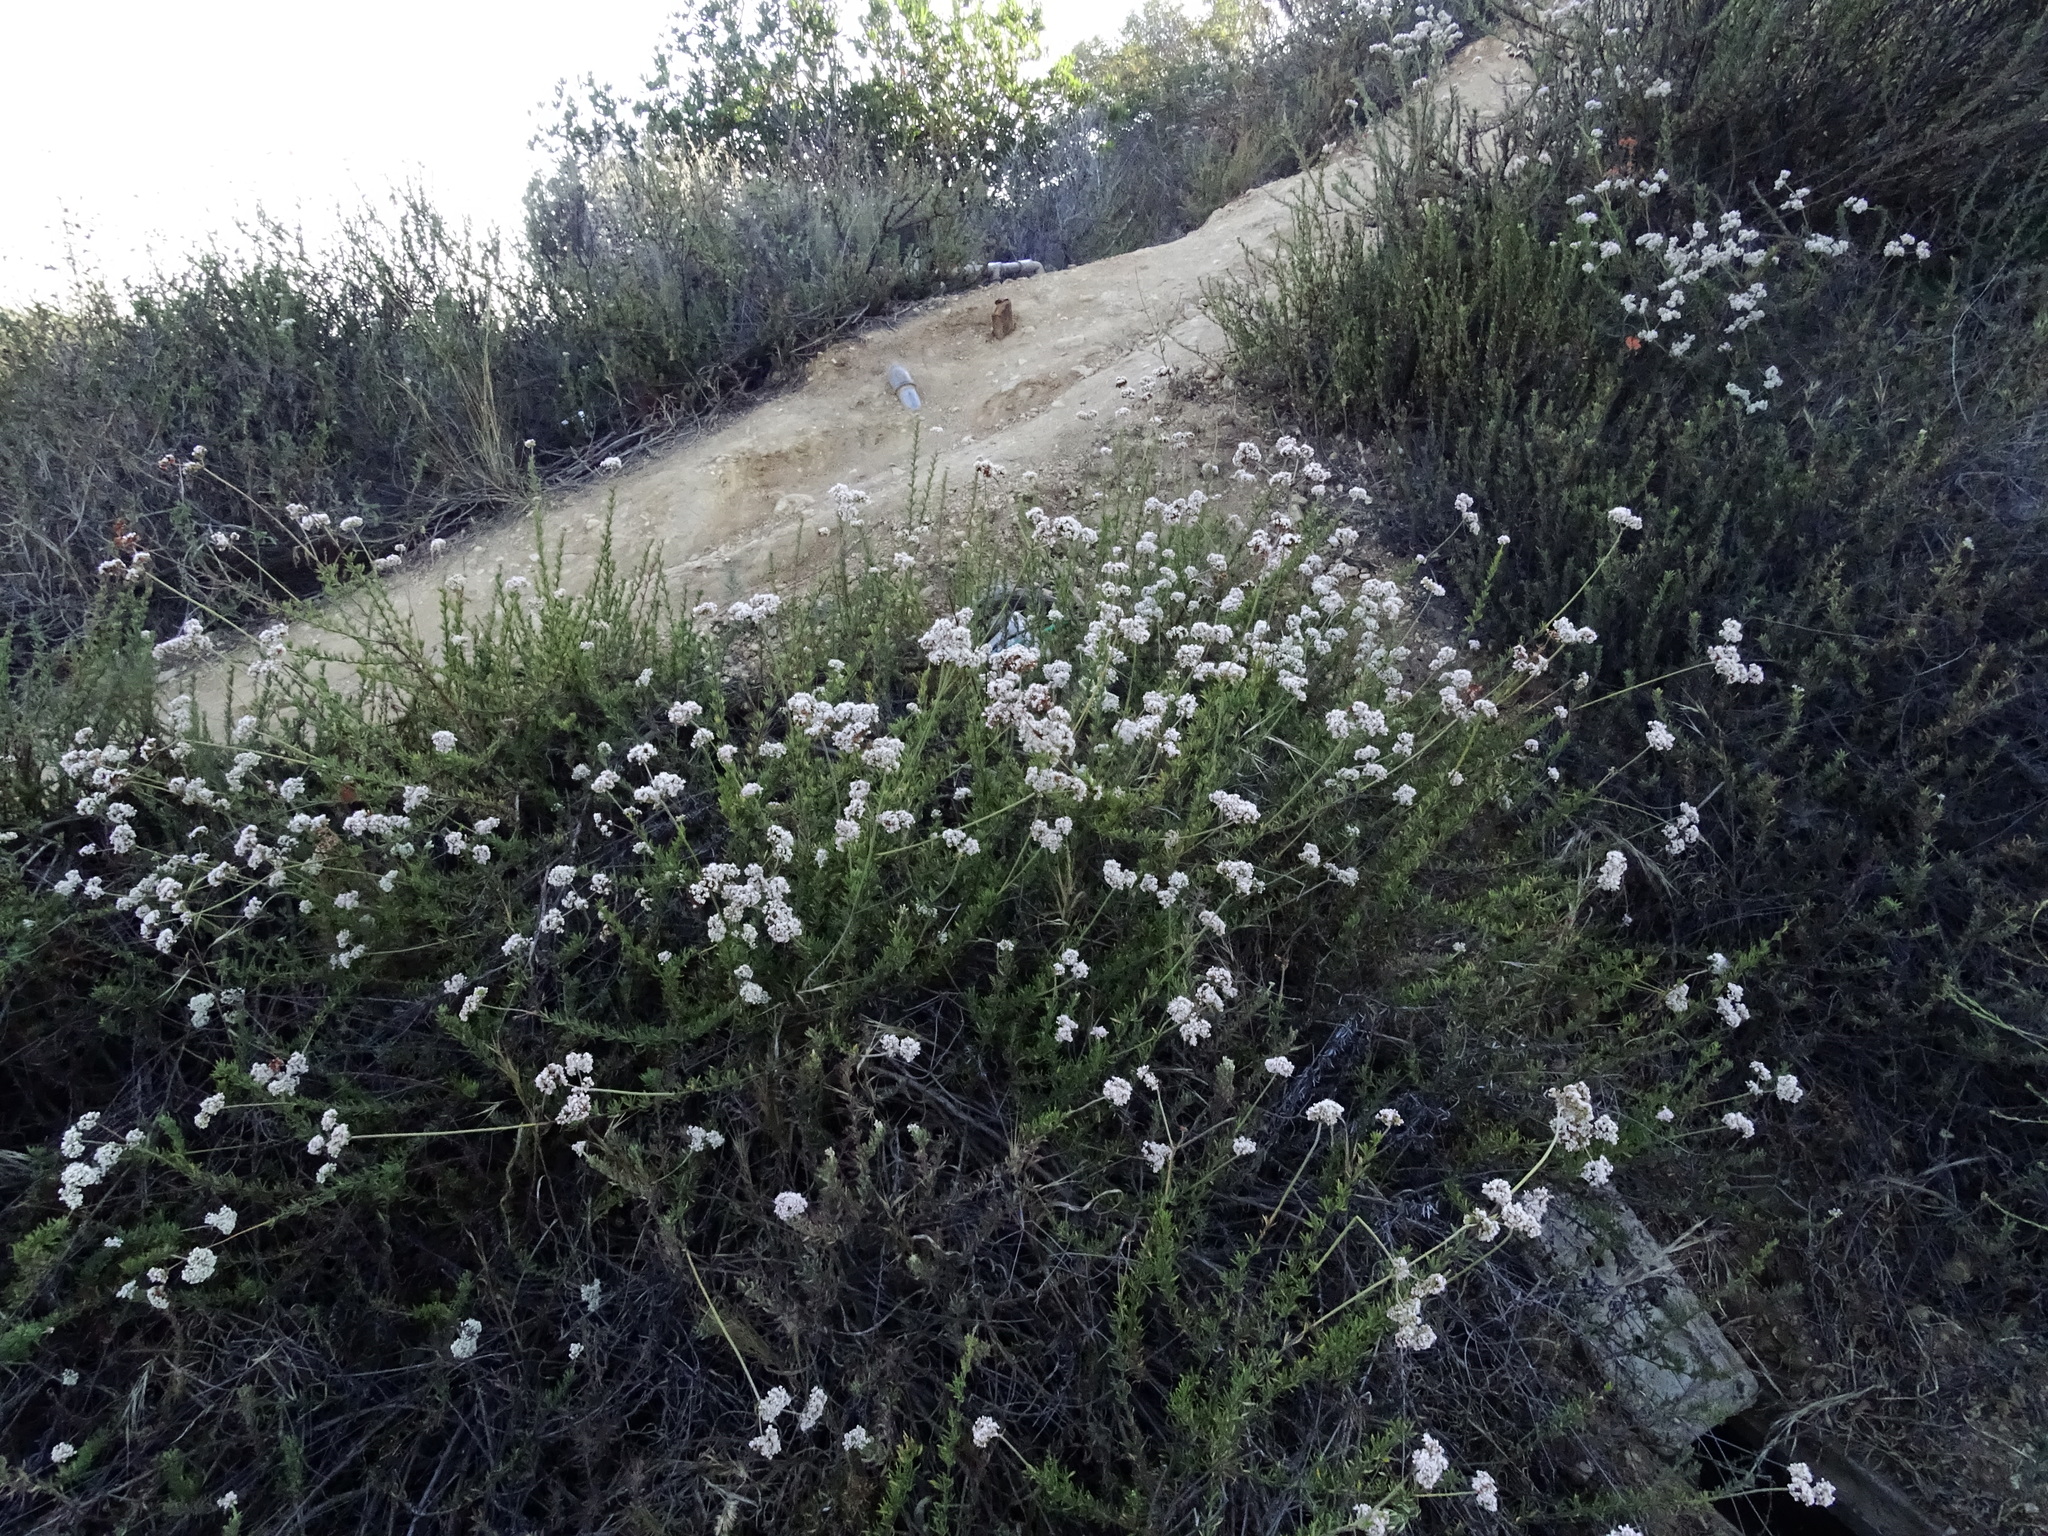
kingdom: Plantae
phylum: Tracheophyta
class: Magnoliopsida
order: Caryophyllales
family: Polygonaceae
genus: Eriogonum
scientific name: Eriogonum fasciculatum
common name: California wild buckwheat
